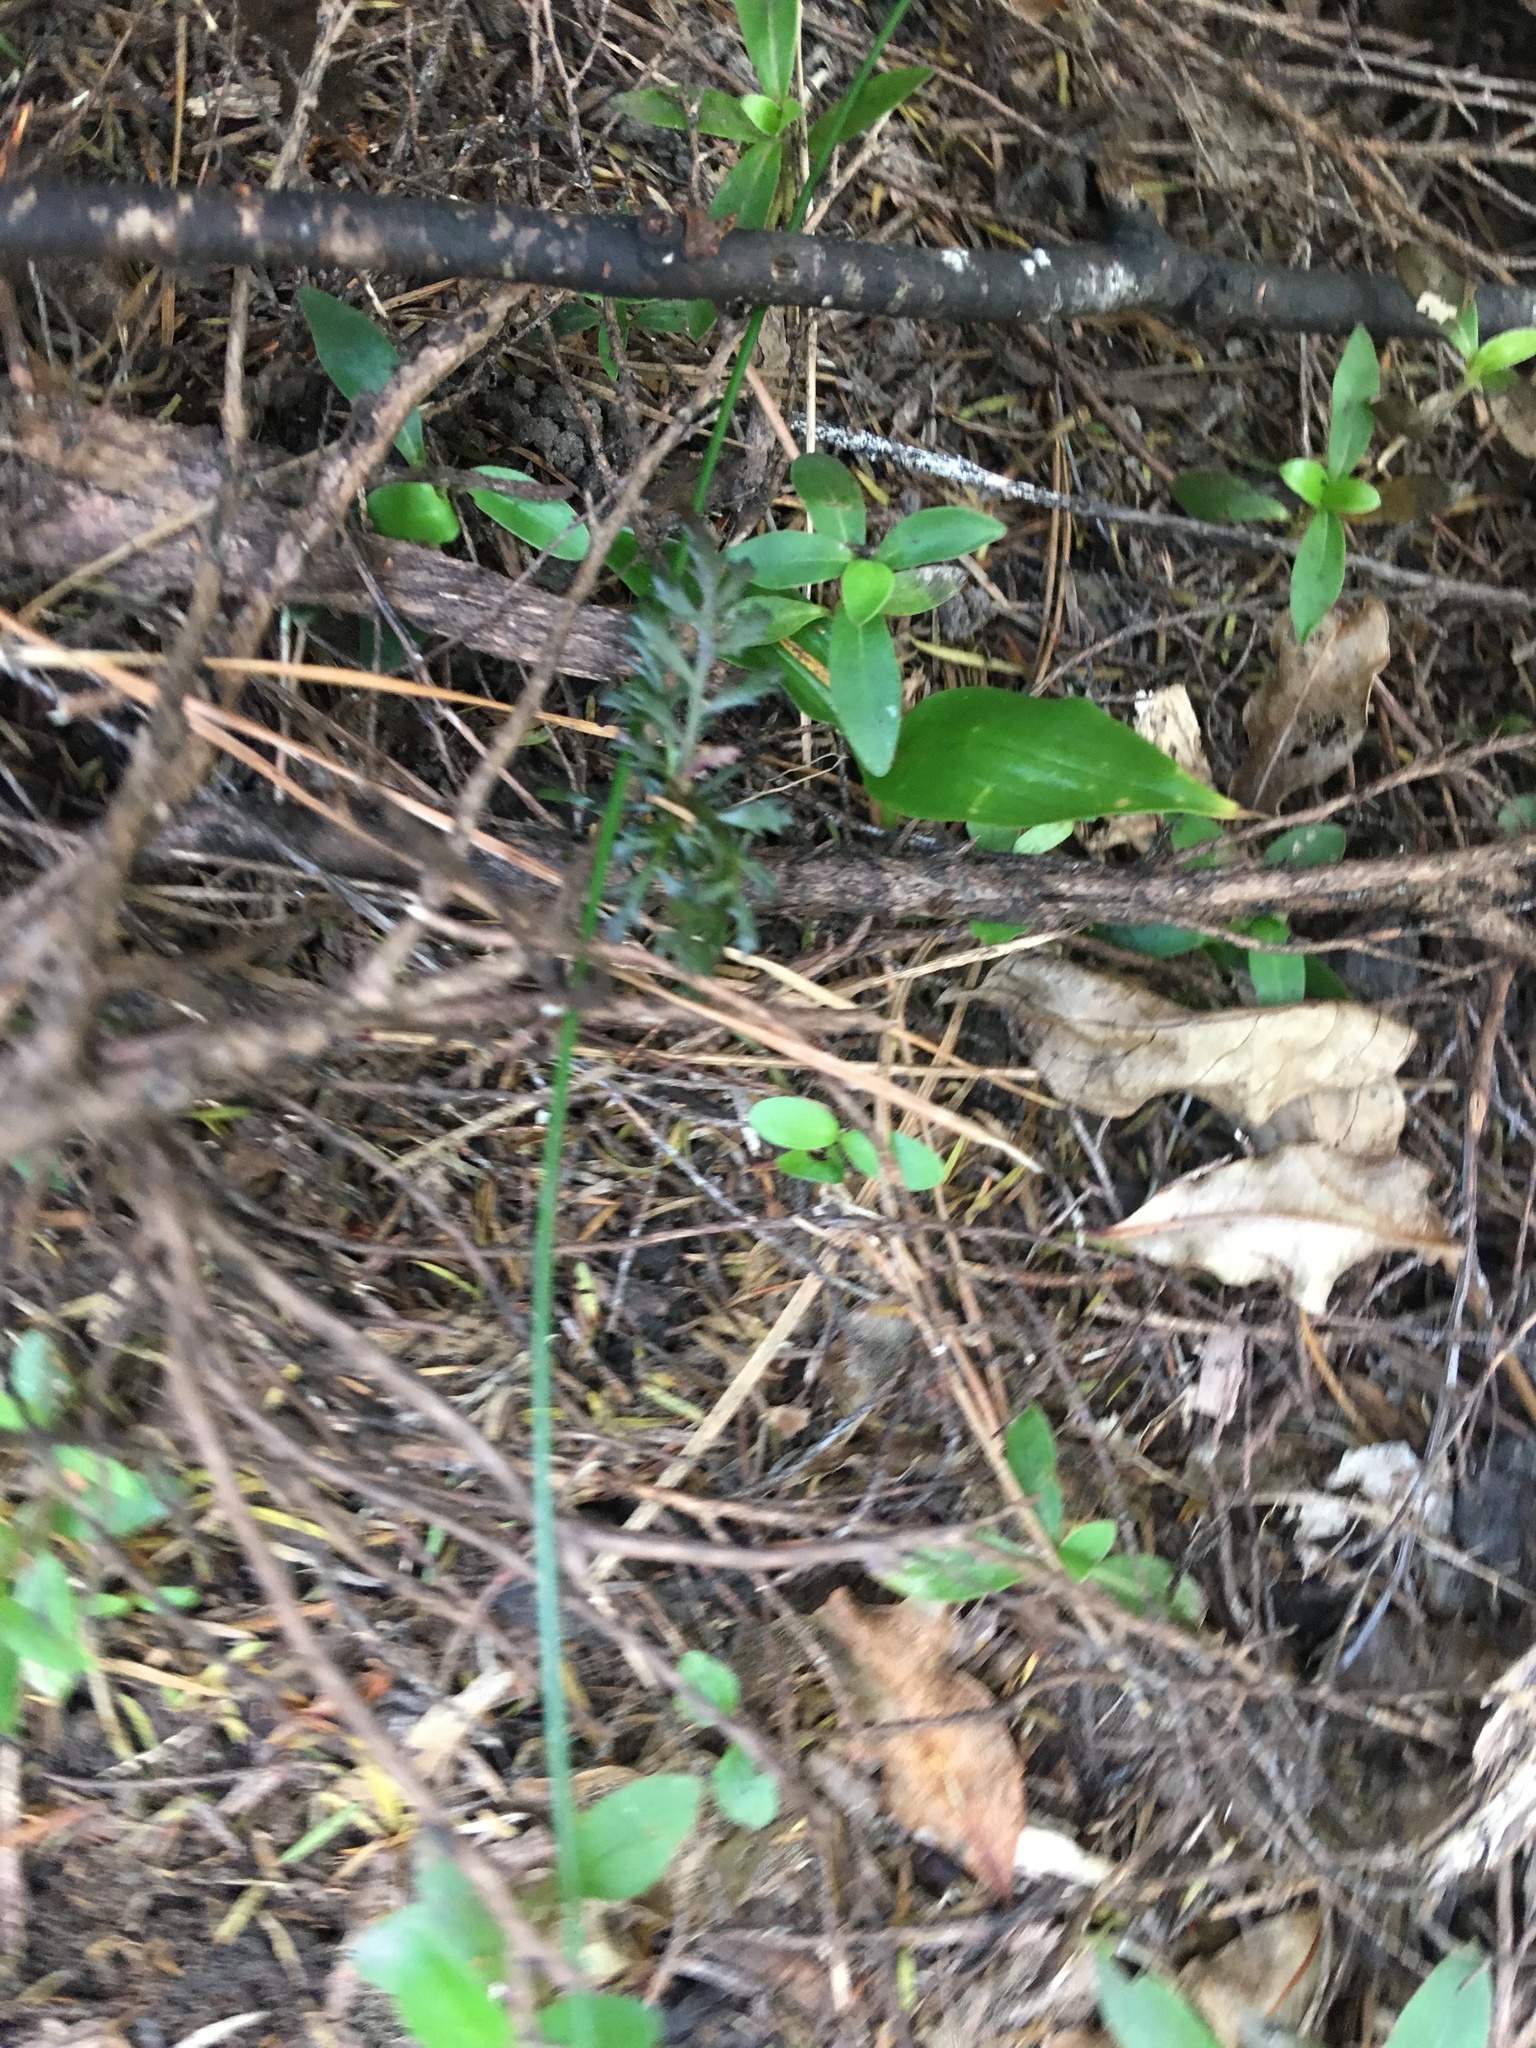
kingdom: Plantae
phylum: Tracheophyta
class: Pinopsida
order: Pinales
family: Phyllocladaceae
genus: Phyllocladus
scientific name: Phyllocladus trichomanoides
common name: Celery pine
